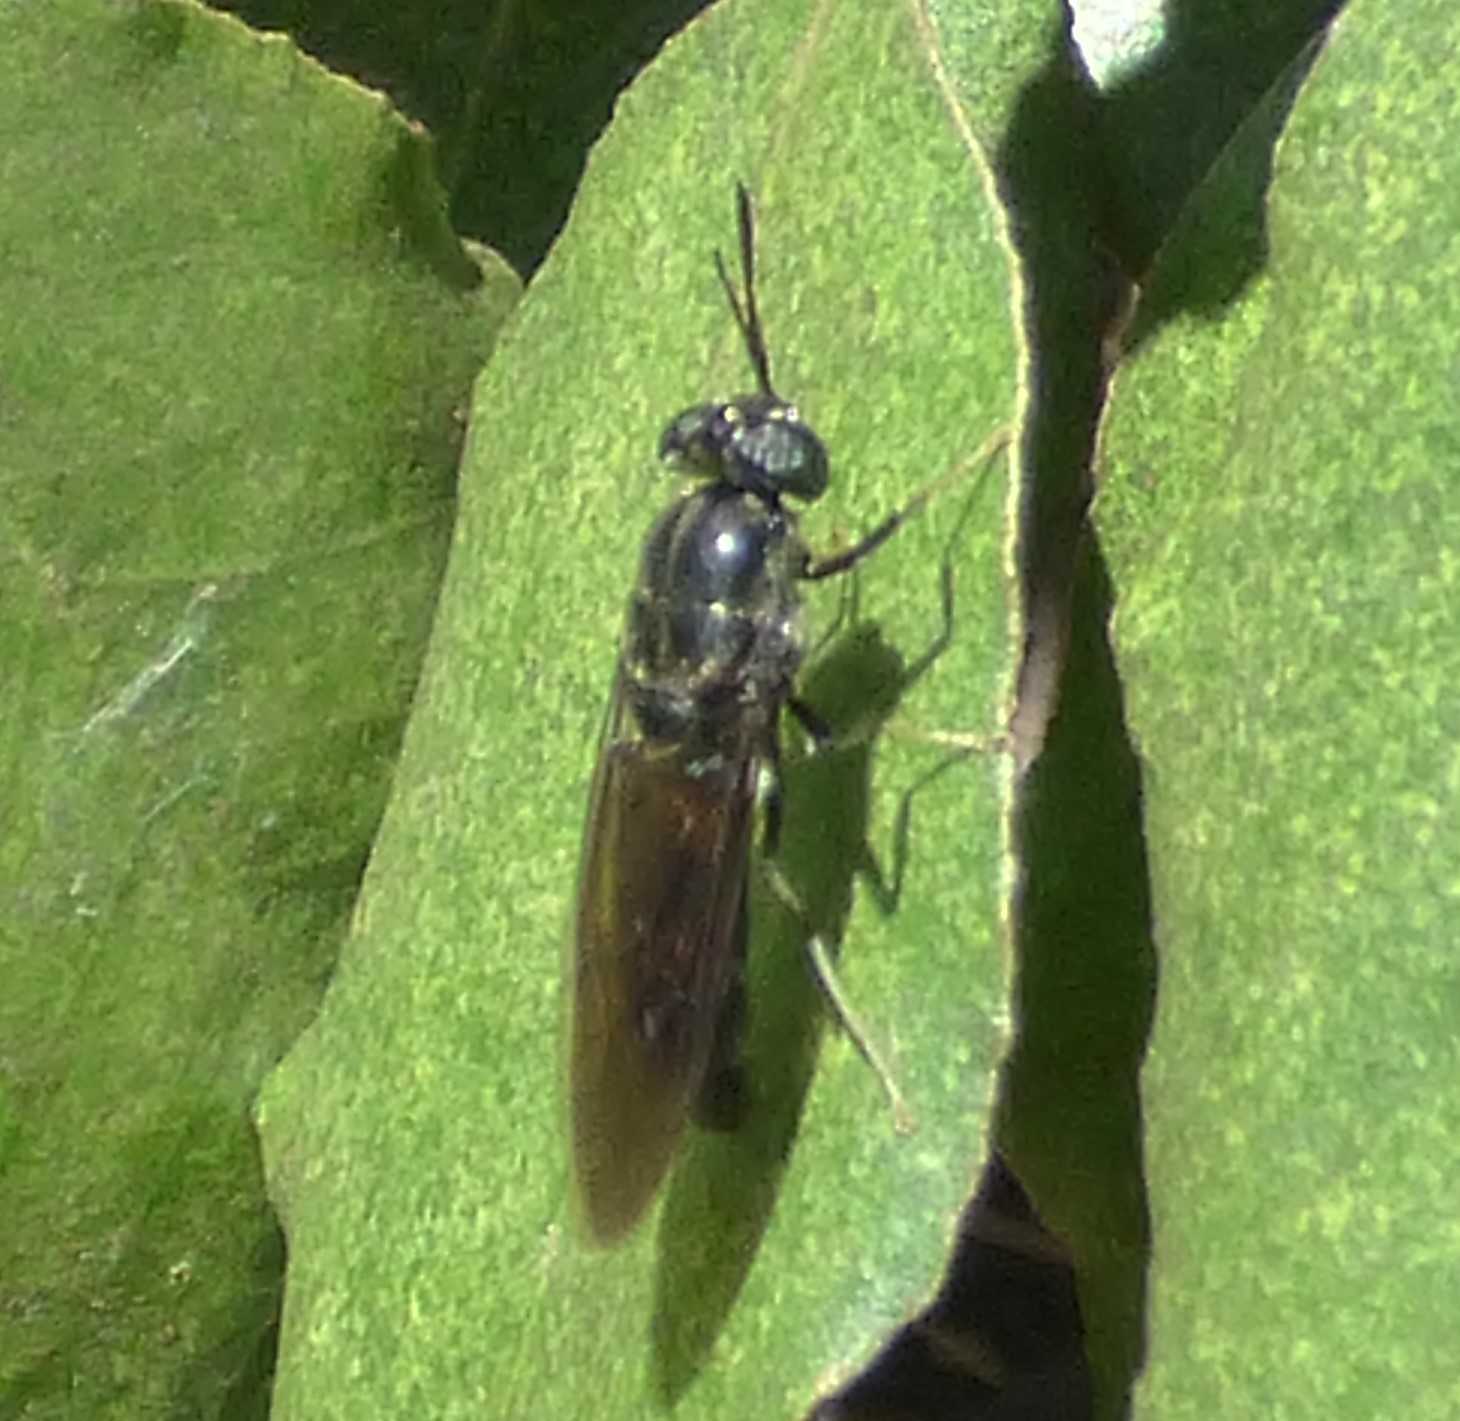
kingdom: Animalia
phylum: Arthropoda
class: Insecta
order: Diptera
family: Stratiomyidae
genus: Hermetia
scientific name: Hermetia illucens
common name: Black soldier fly
